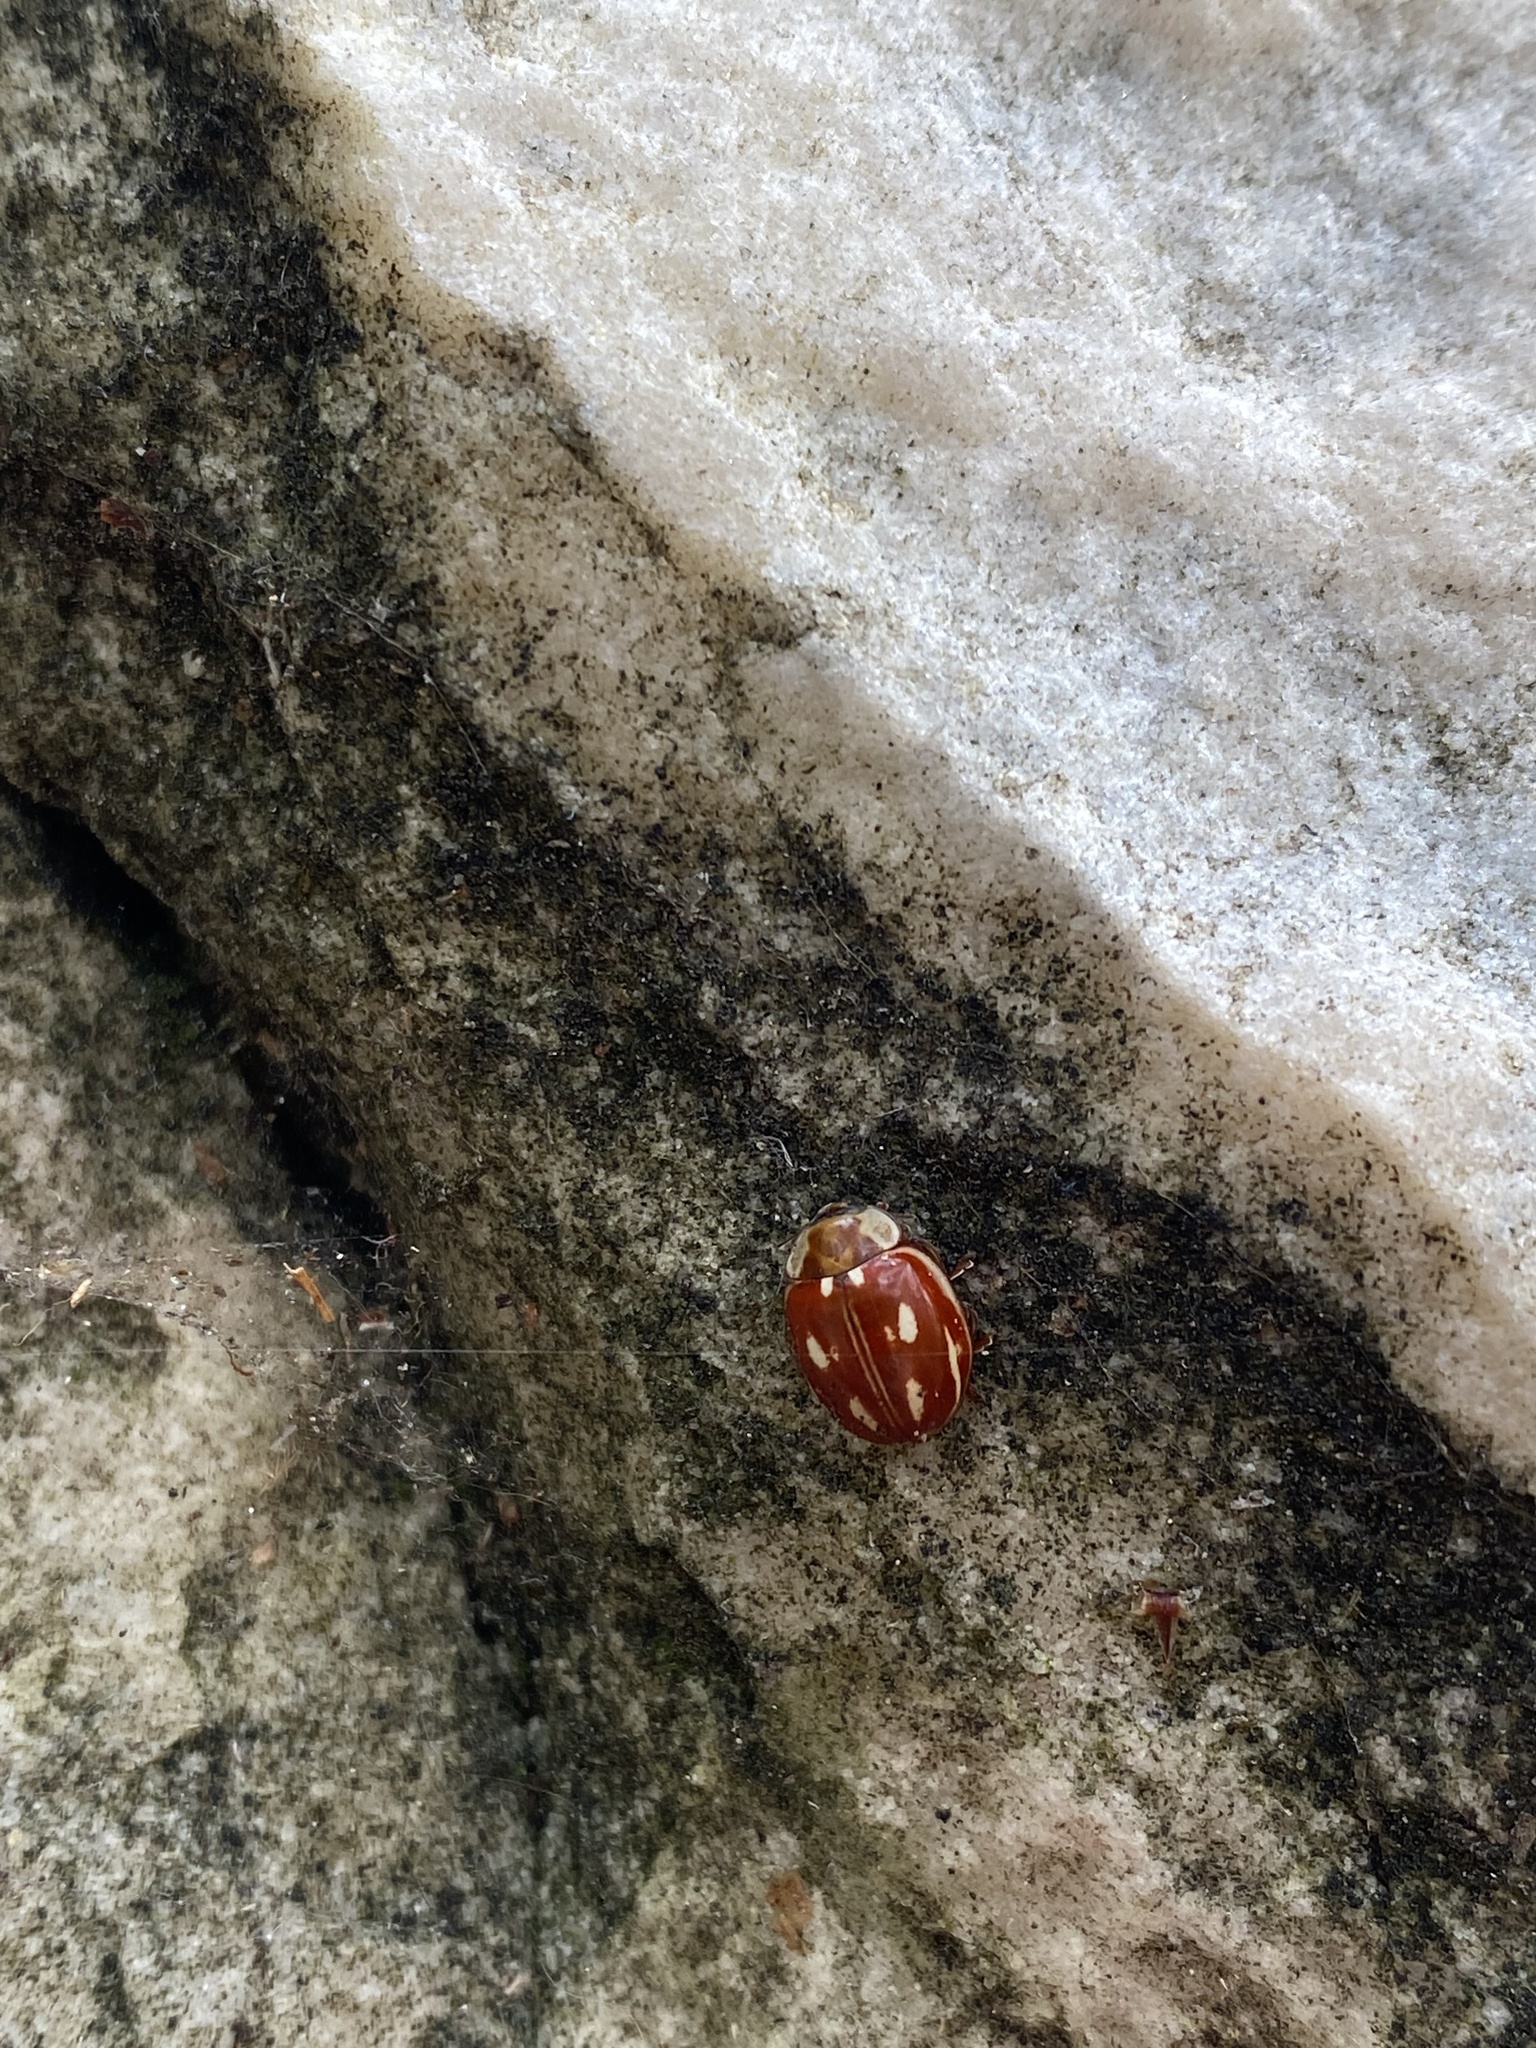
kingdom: Animalia
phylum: Arthropoda
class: Insecta
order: Coleoptera
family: Coccinellidae
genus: Myzia
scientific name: Myzia oblongoguttata
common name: Striped ladybird
